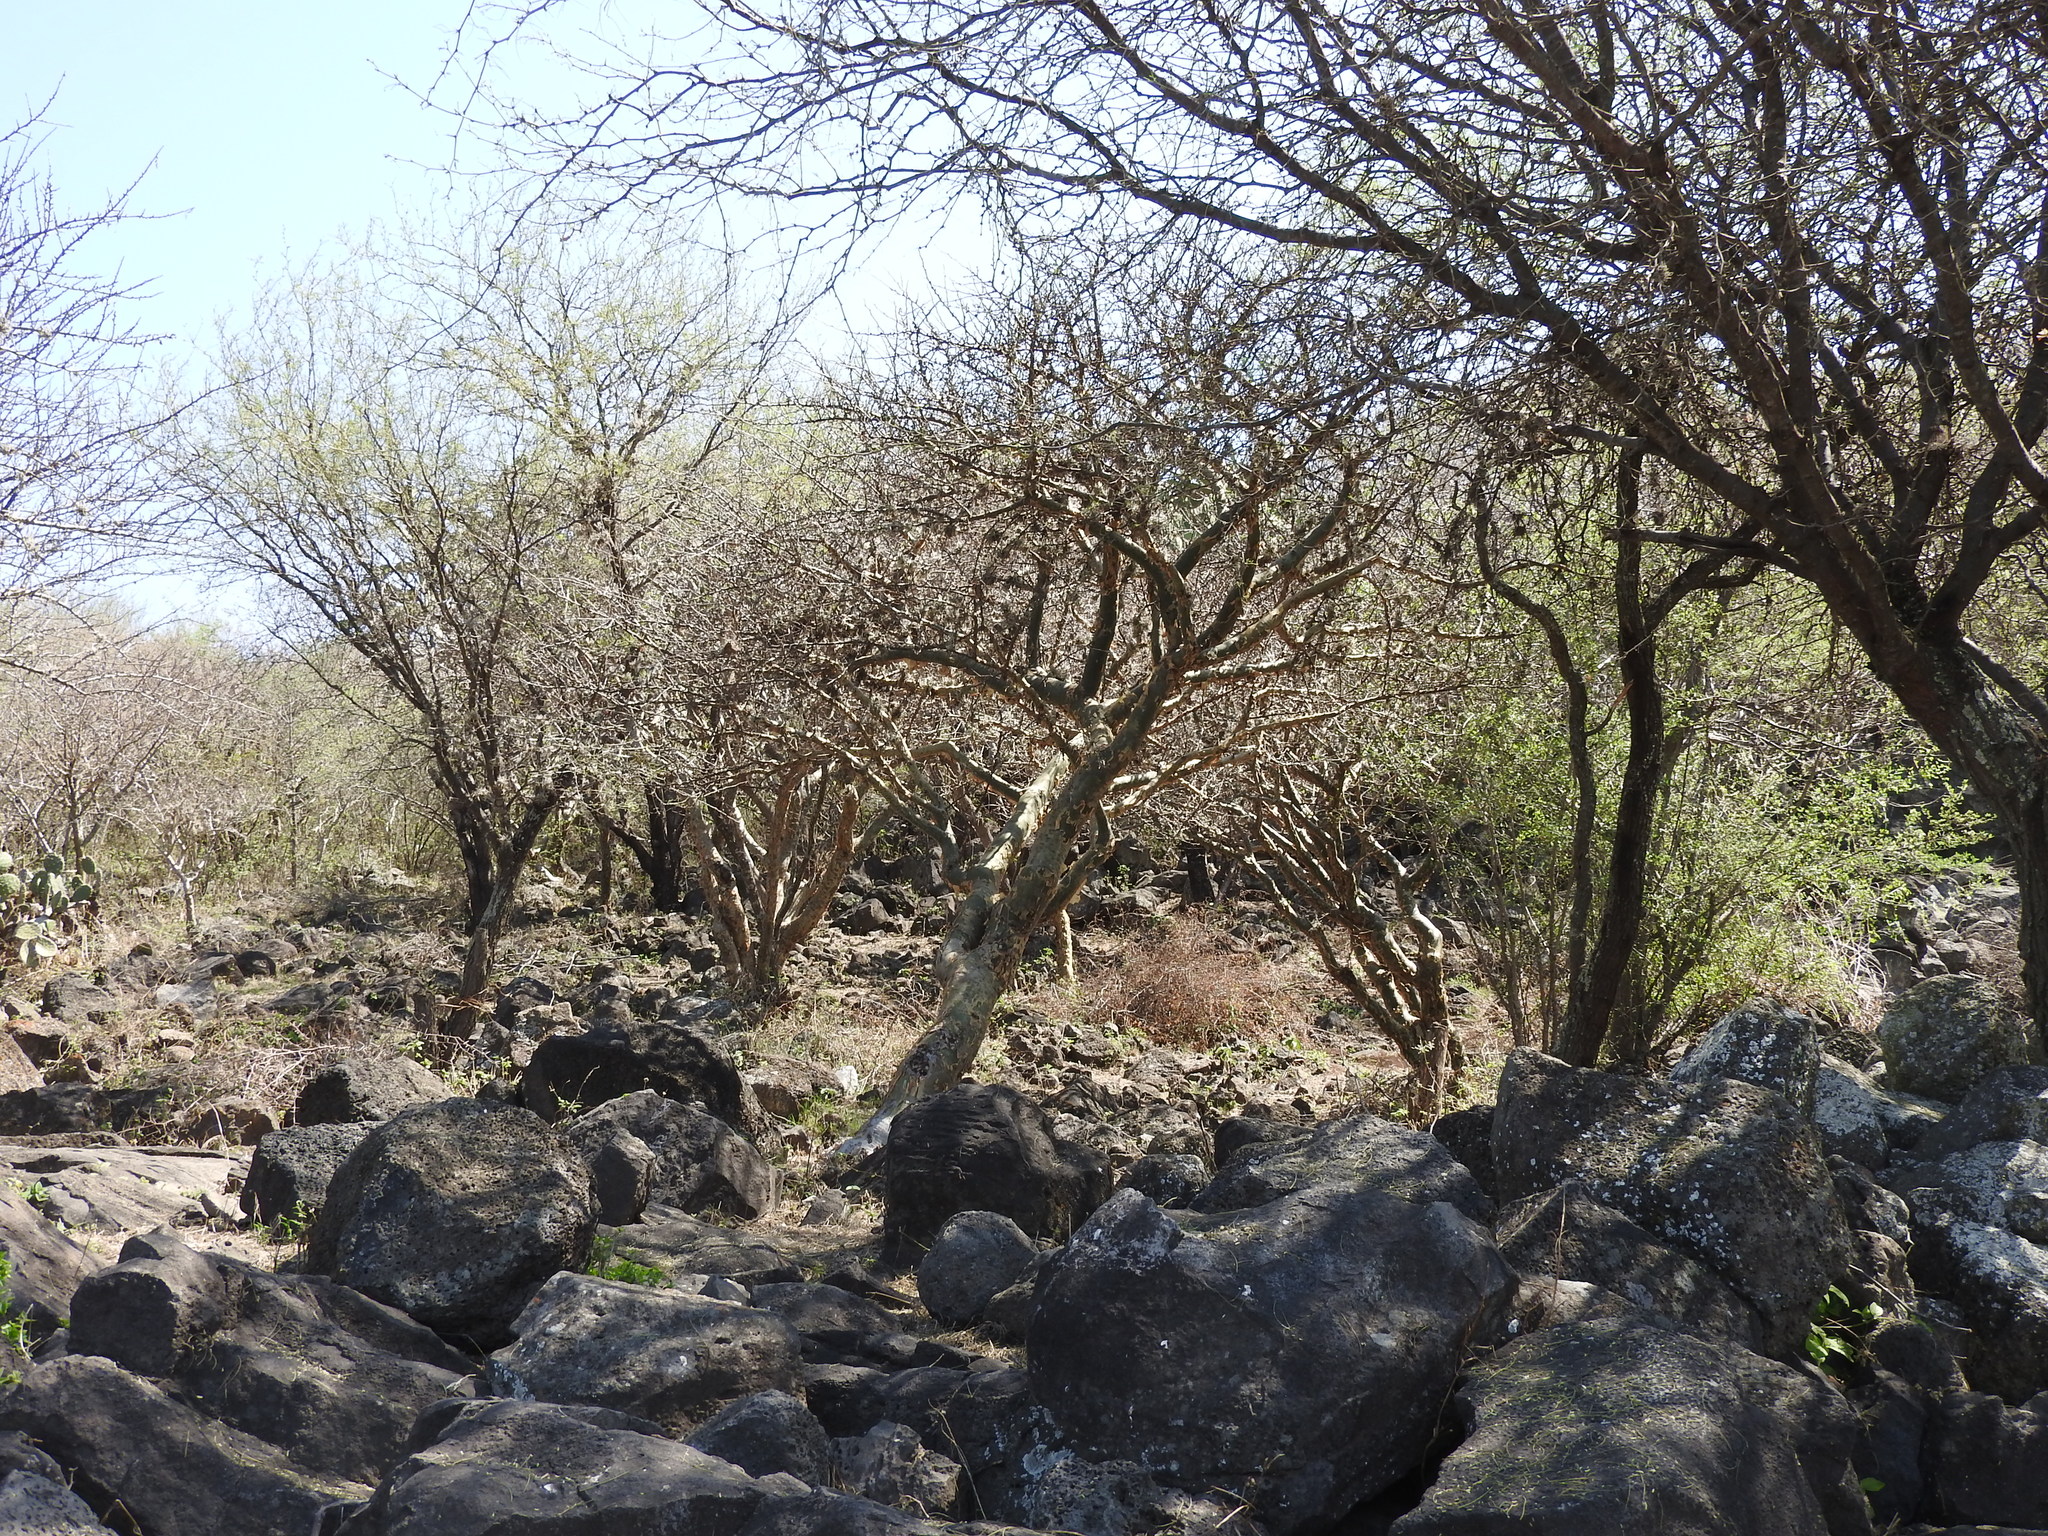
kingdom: Plantae
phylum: Tracheophyta
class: Magnoliopsida
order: Sapindales
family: Burseraceae
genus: Bursera
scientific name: Bursera fagaroides
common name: Elephant tree
